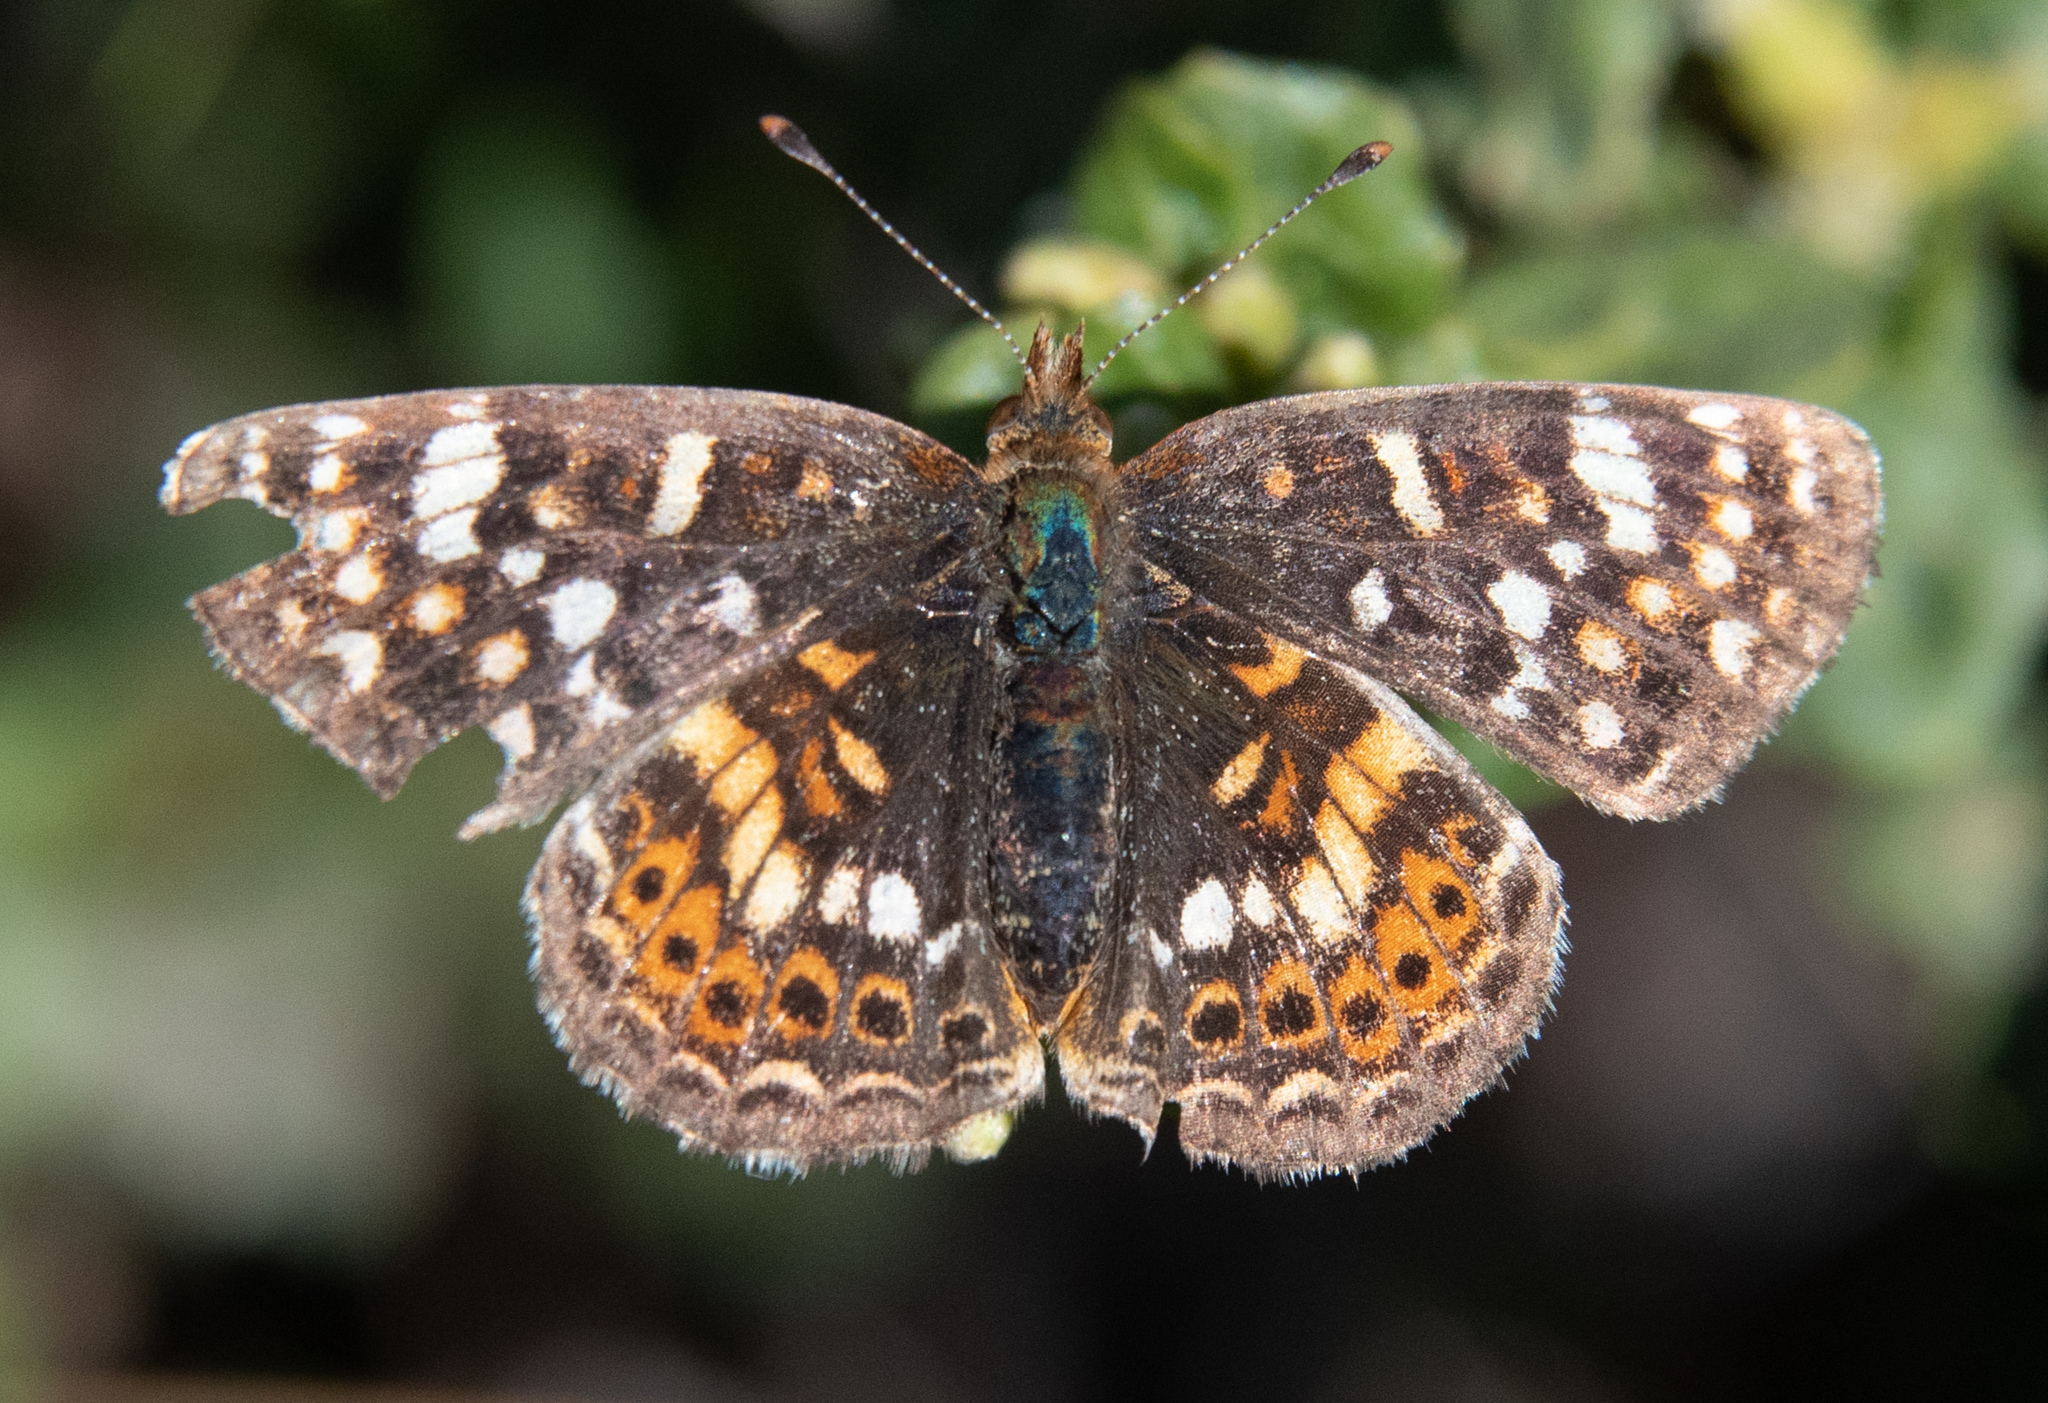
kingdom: Animalia
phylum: Arthropoda
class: Insecta
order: Lepidoptera
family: Nymphalidae
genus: Phyciodes
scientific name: Phyciodes tharos
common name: Pearl crescent
